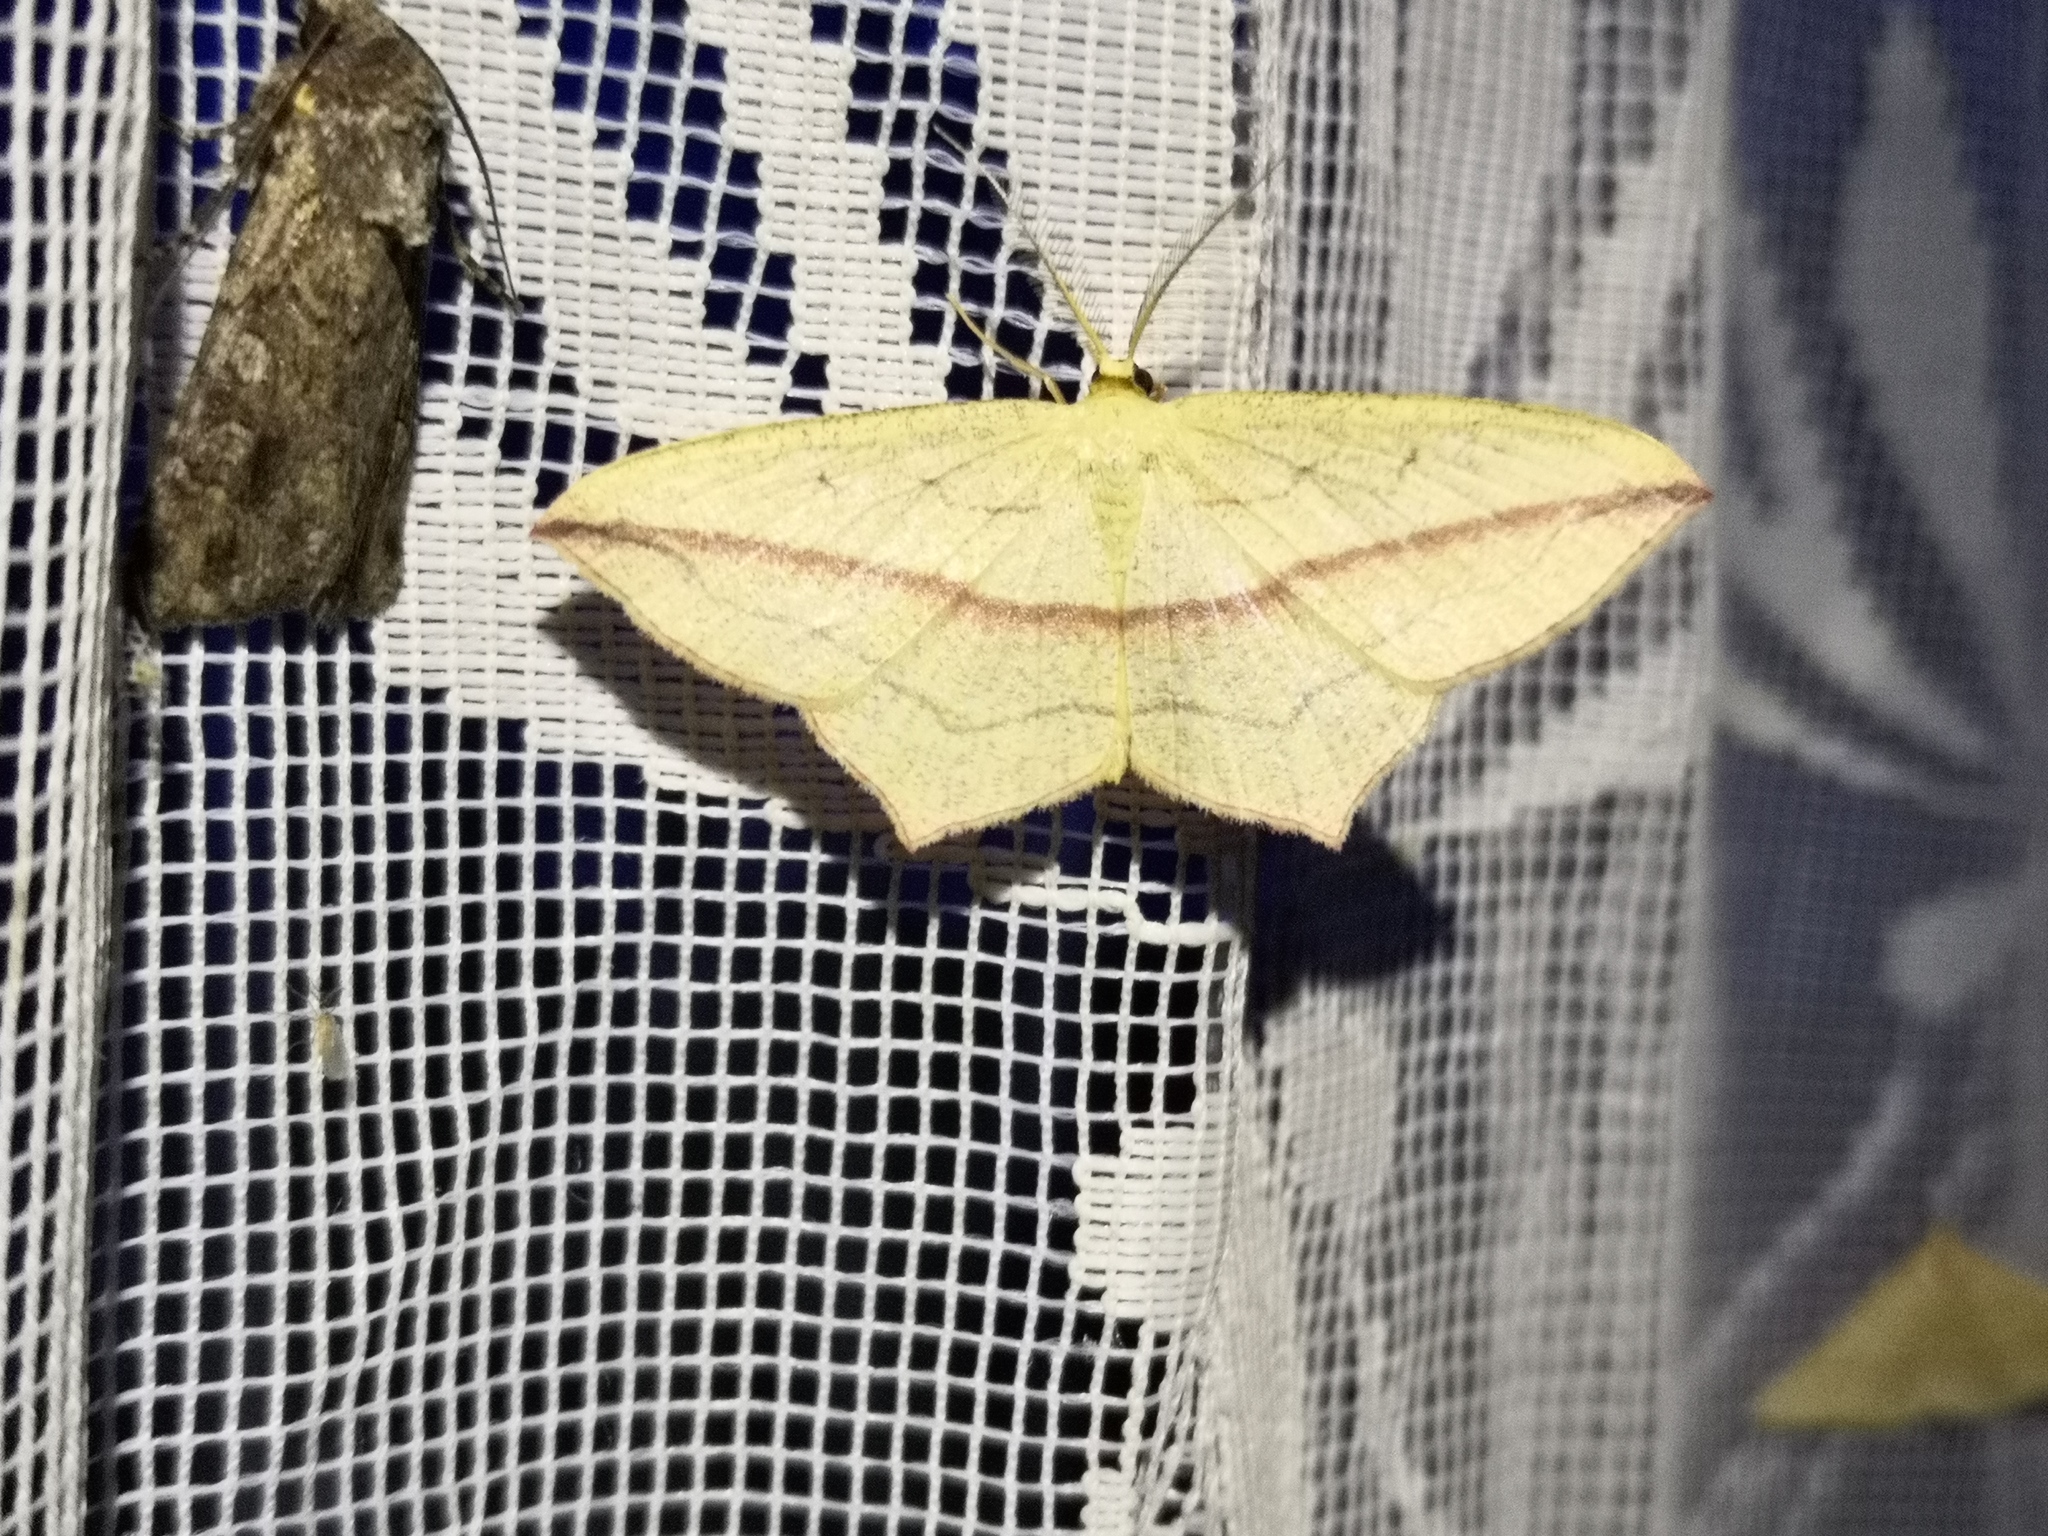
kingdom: Animalia
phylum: Arthropoda
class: Insecta
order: Lepidoptera
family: Geometridae
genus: Timandra
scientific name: Timandra comae
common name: Blood-vein
